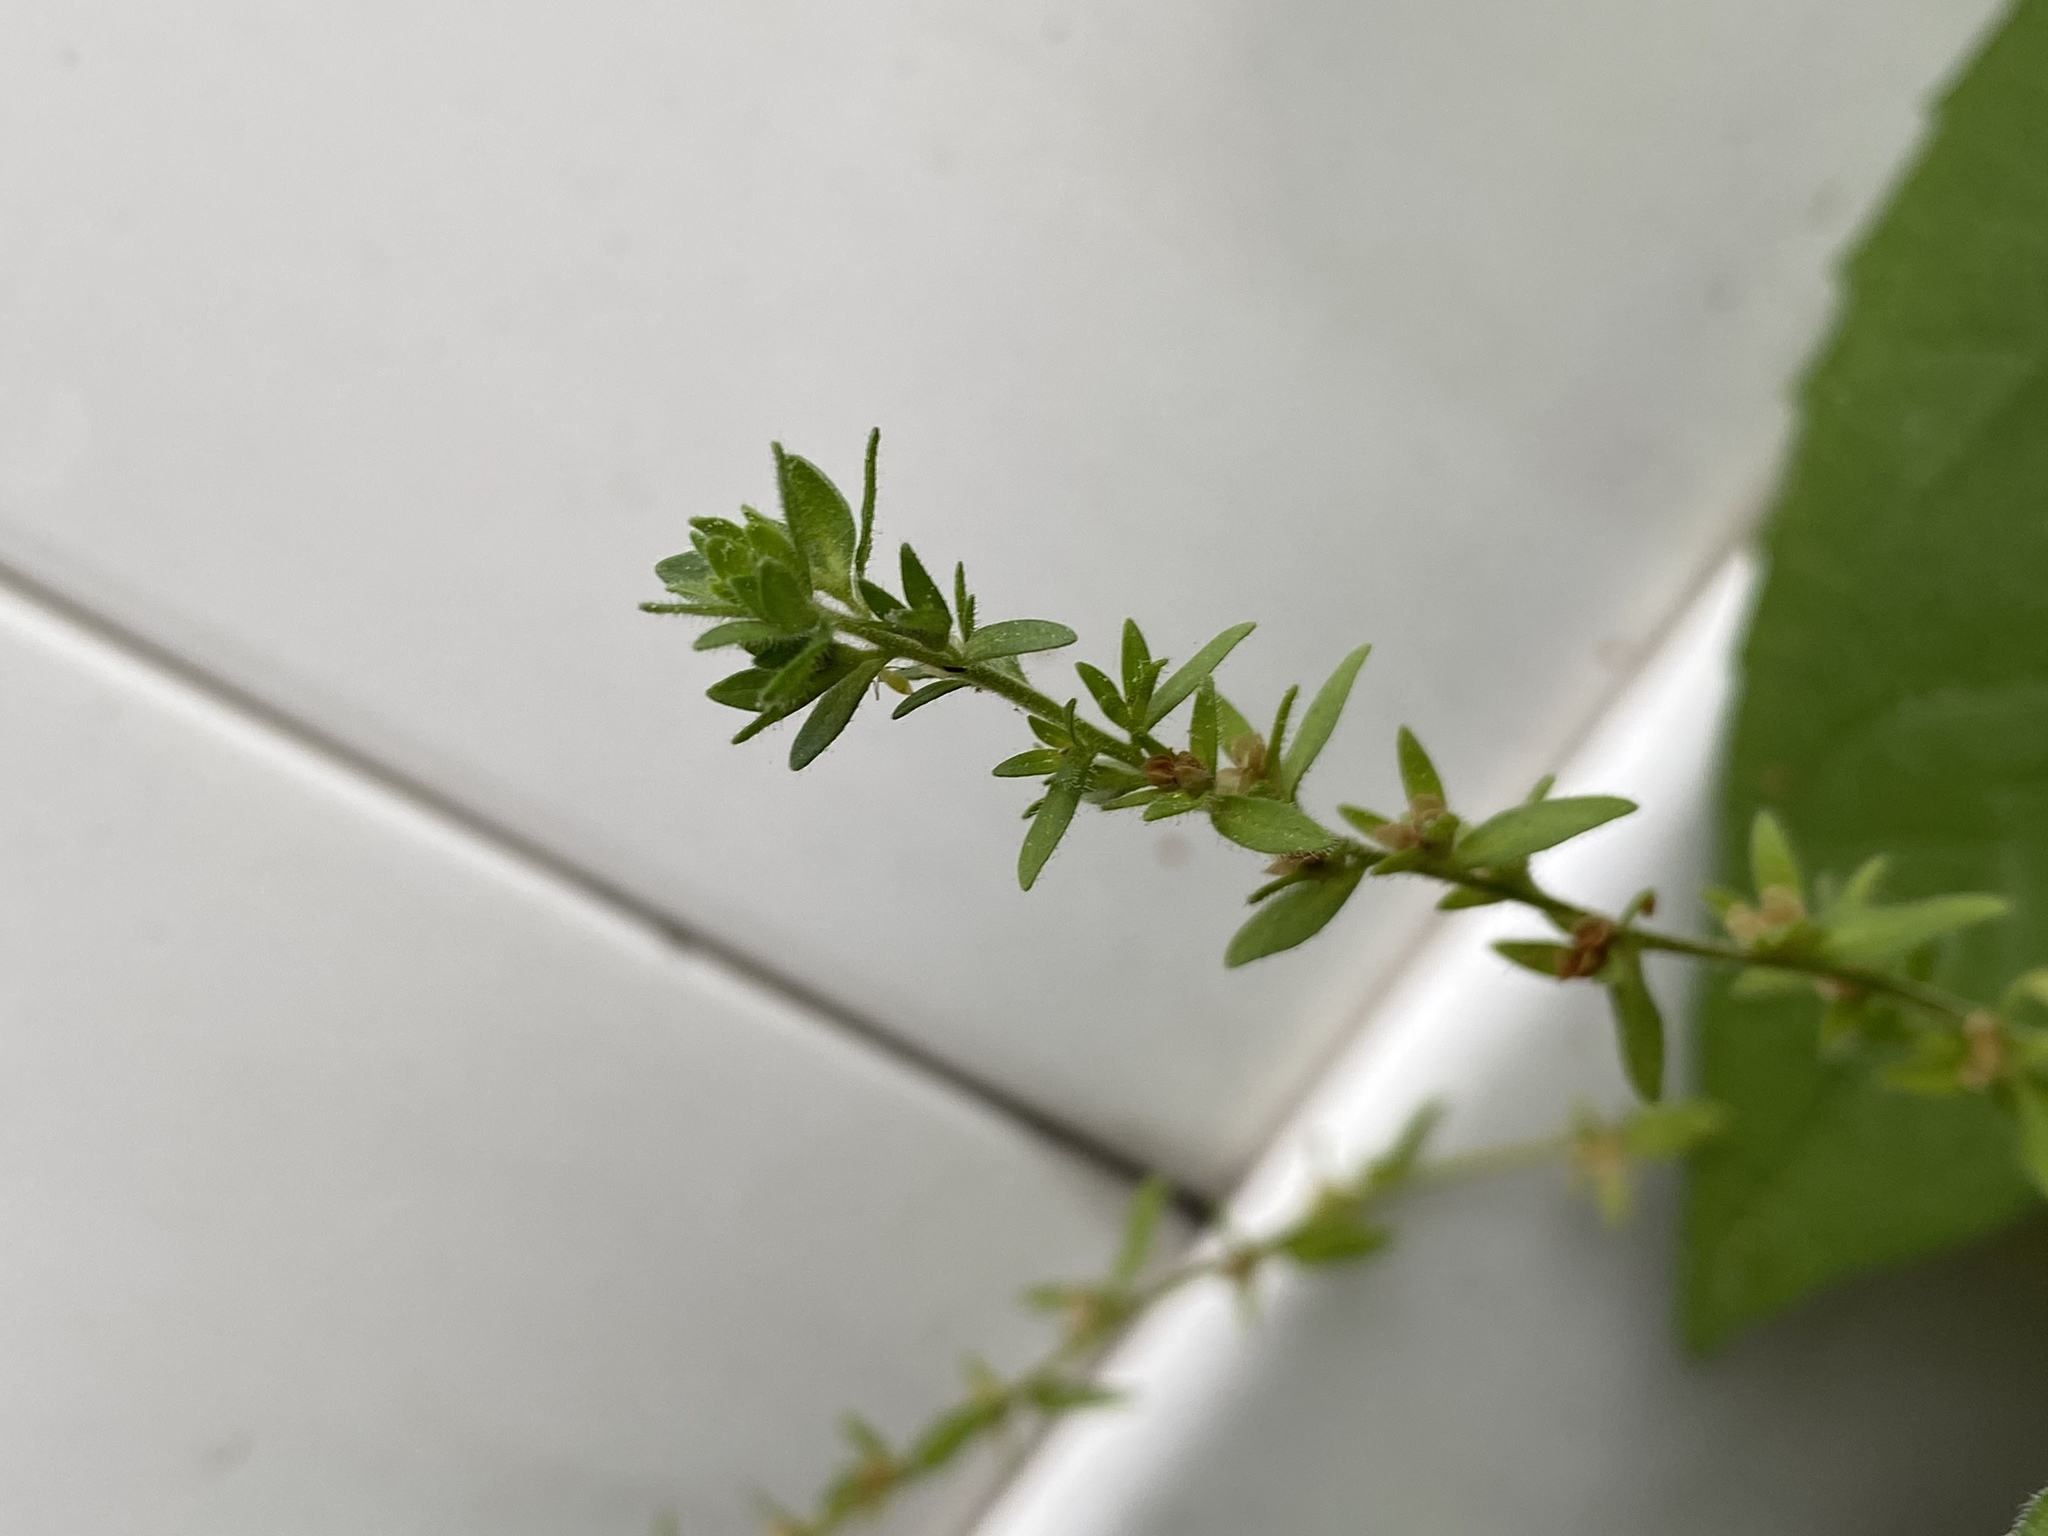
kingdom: Plantae
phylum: Tracheophyta
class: Magnoliopsida
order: Lamiales
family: Plantaginaceae
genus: Veronica
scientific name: Veronica arvensis
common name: Corn speedwell
